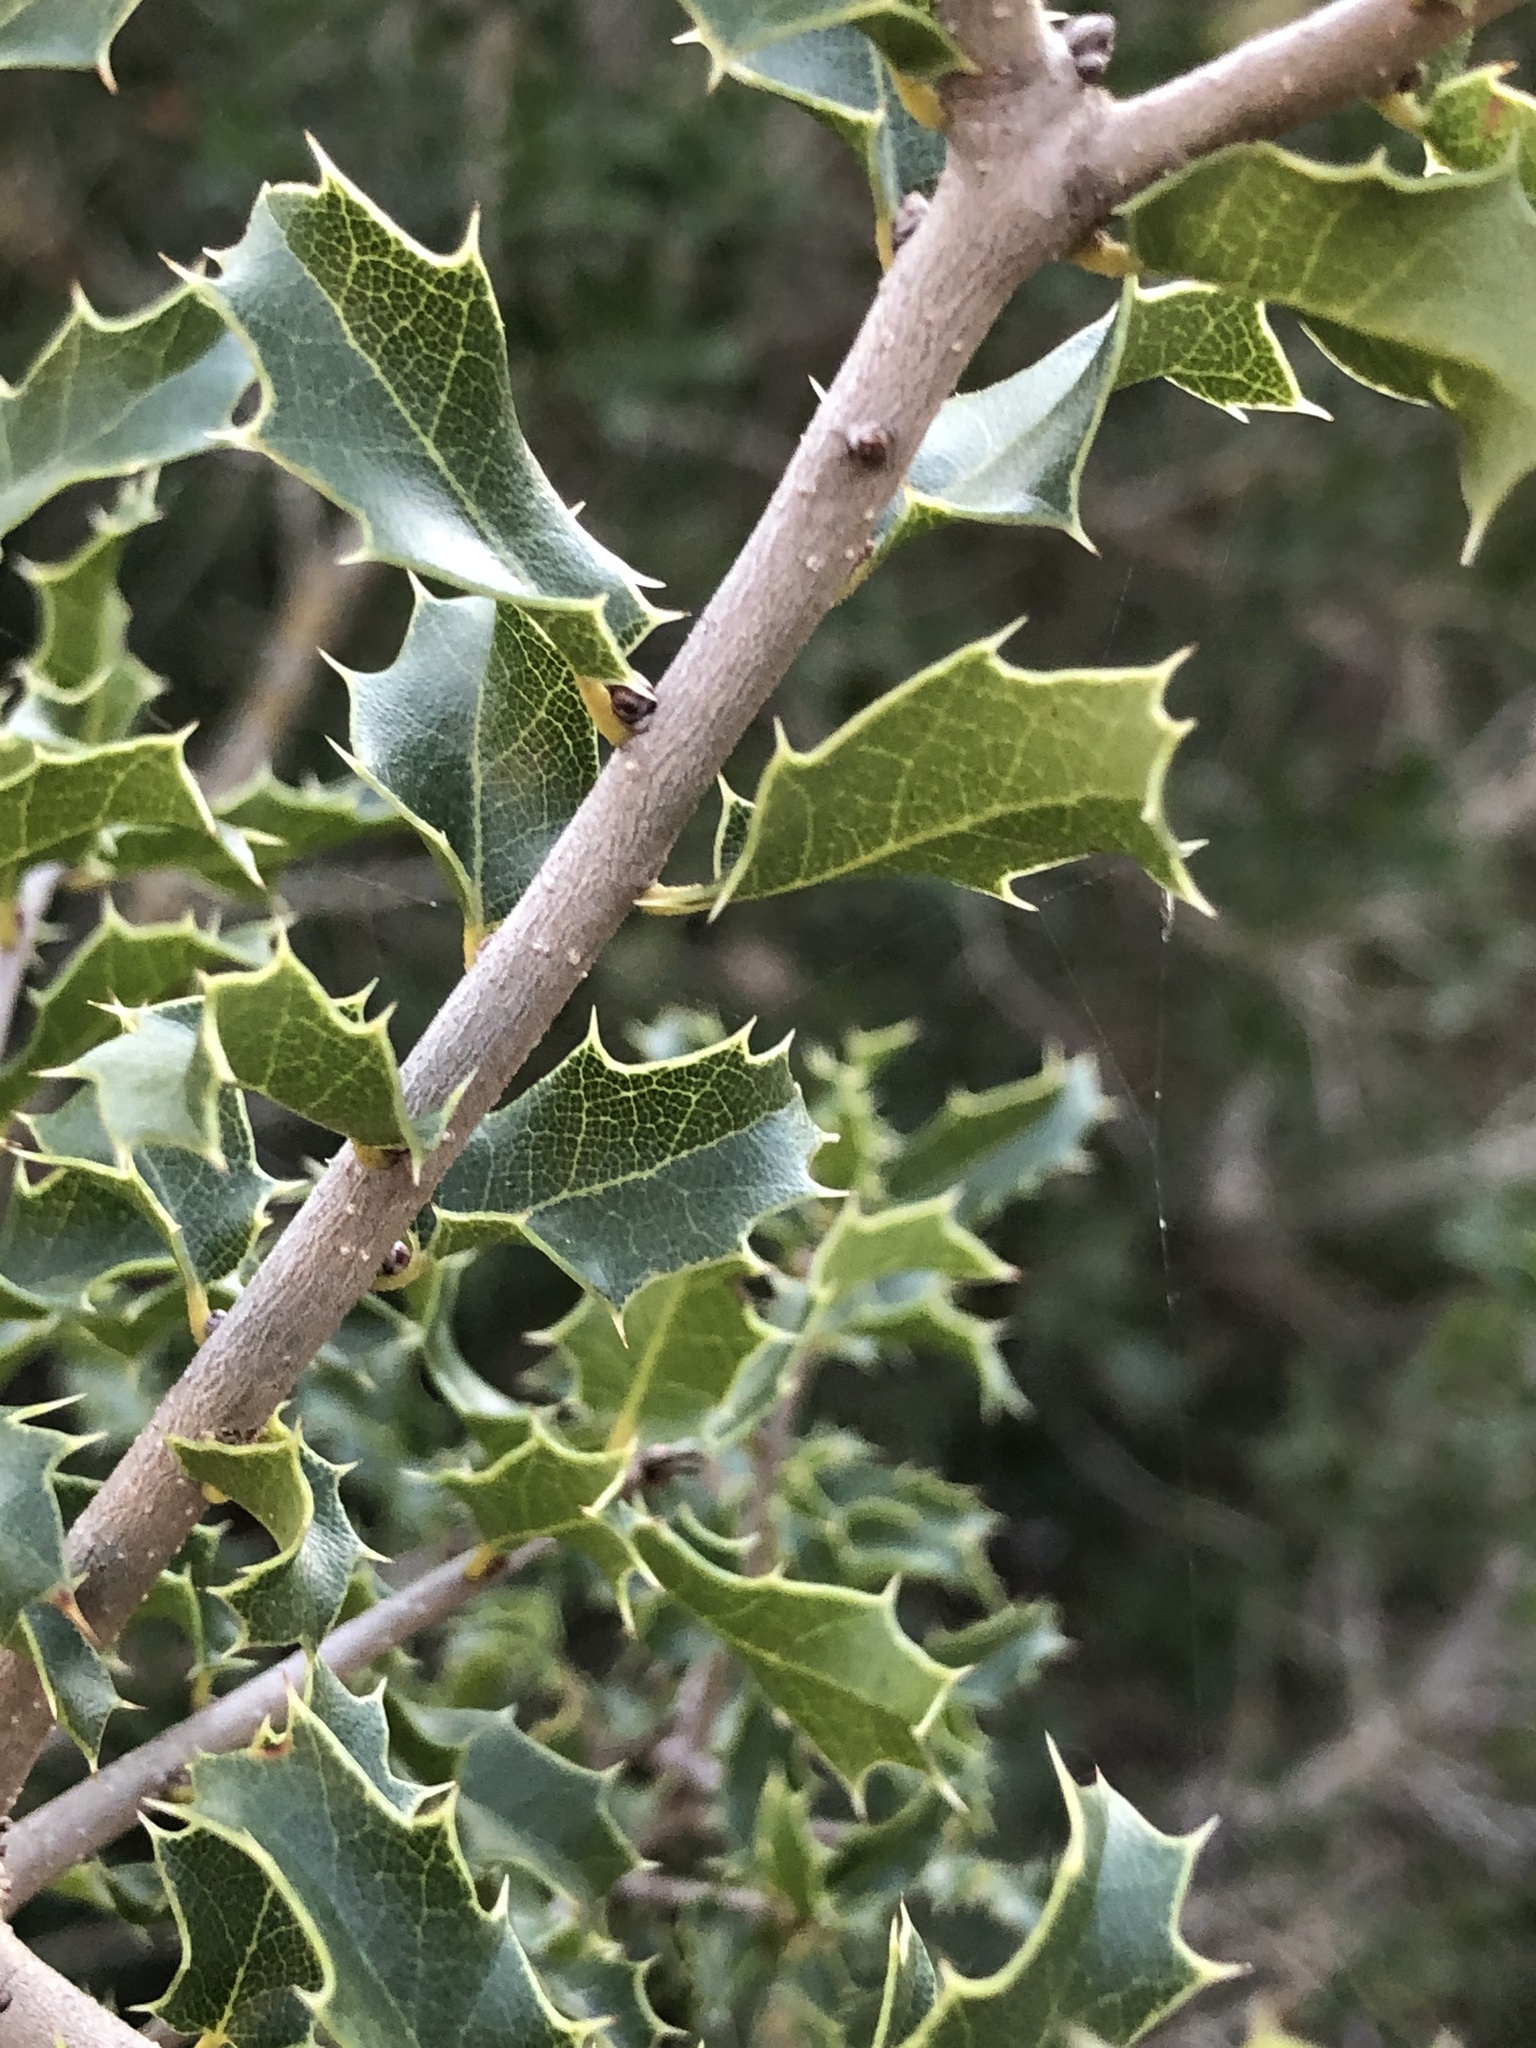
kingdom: Plantae
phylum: Tracheophyta
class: Magnoliopsida
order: Fagales
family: Fagaceae
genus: Quercus
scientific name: Quercus coccifera
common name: Kermes oak
